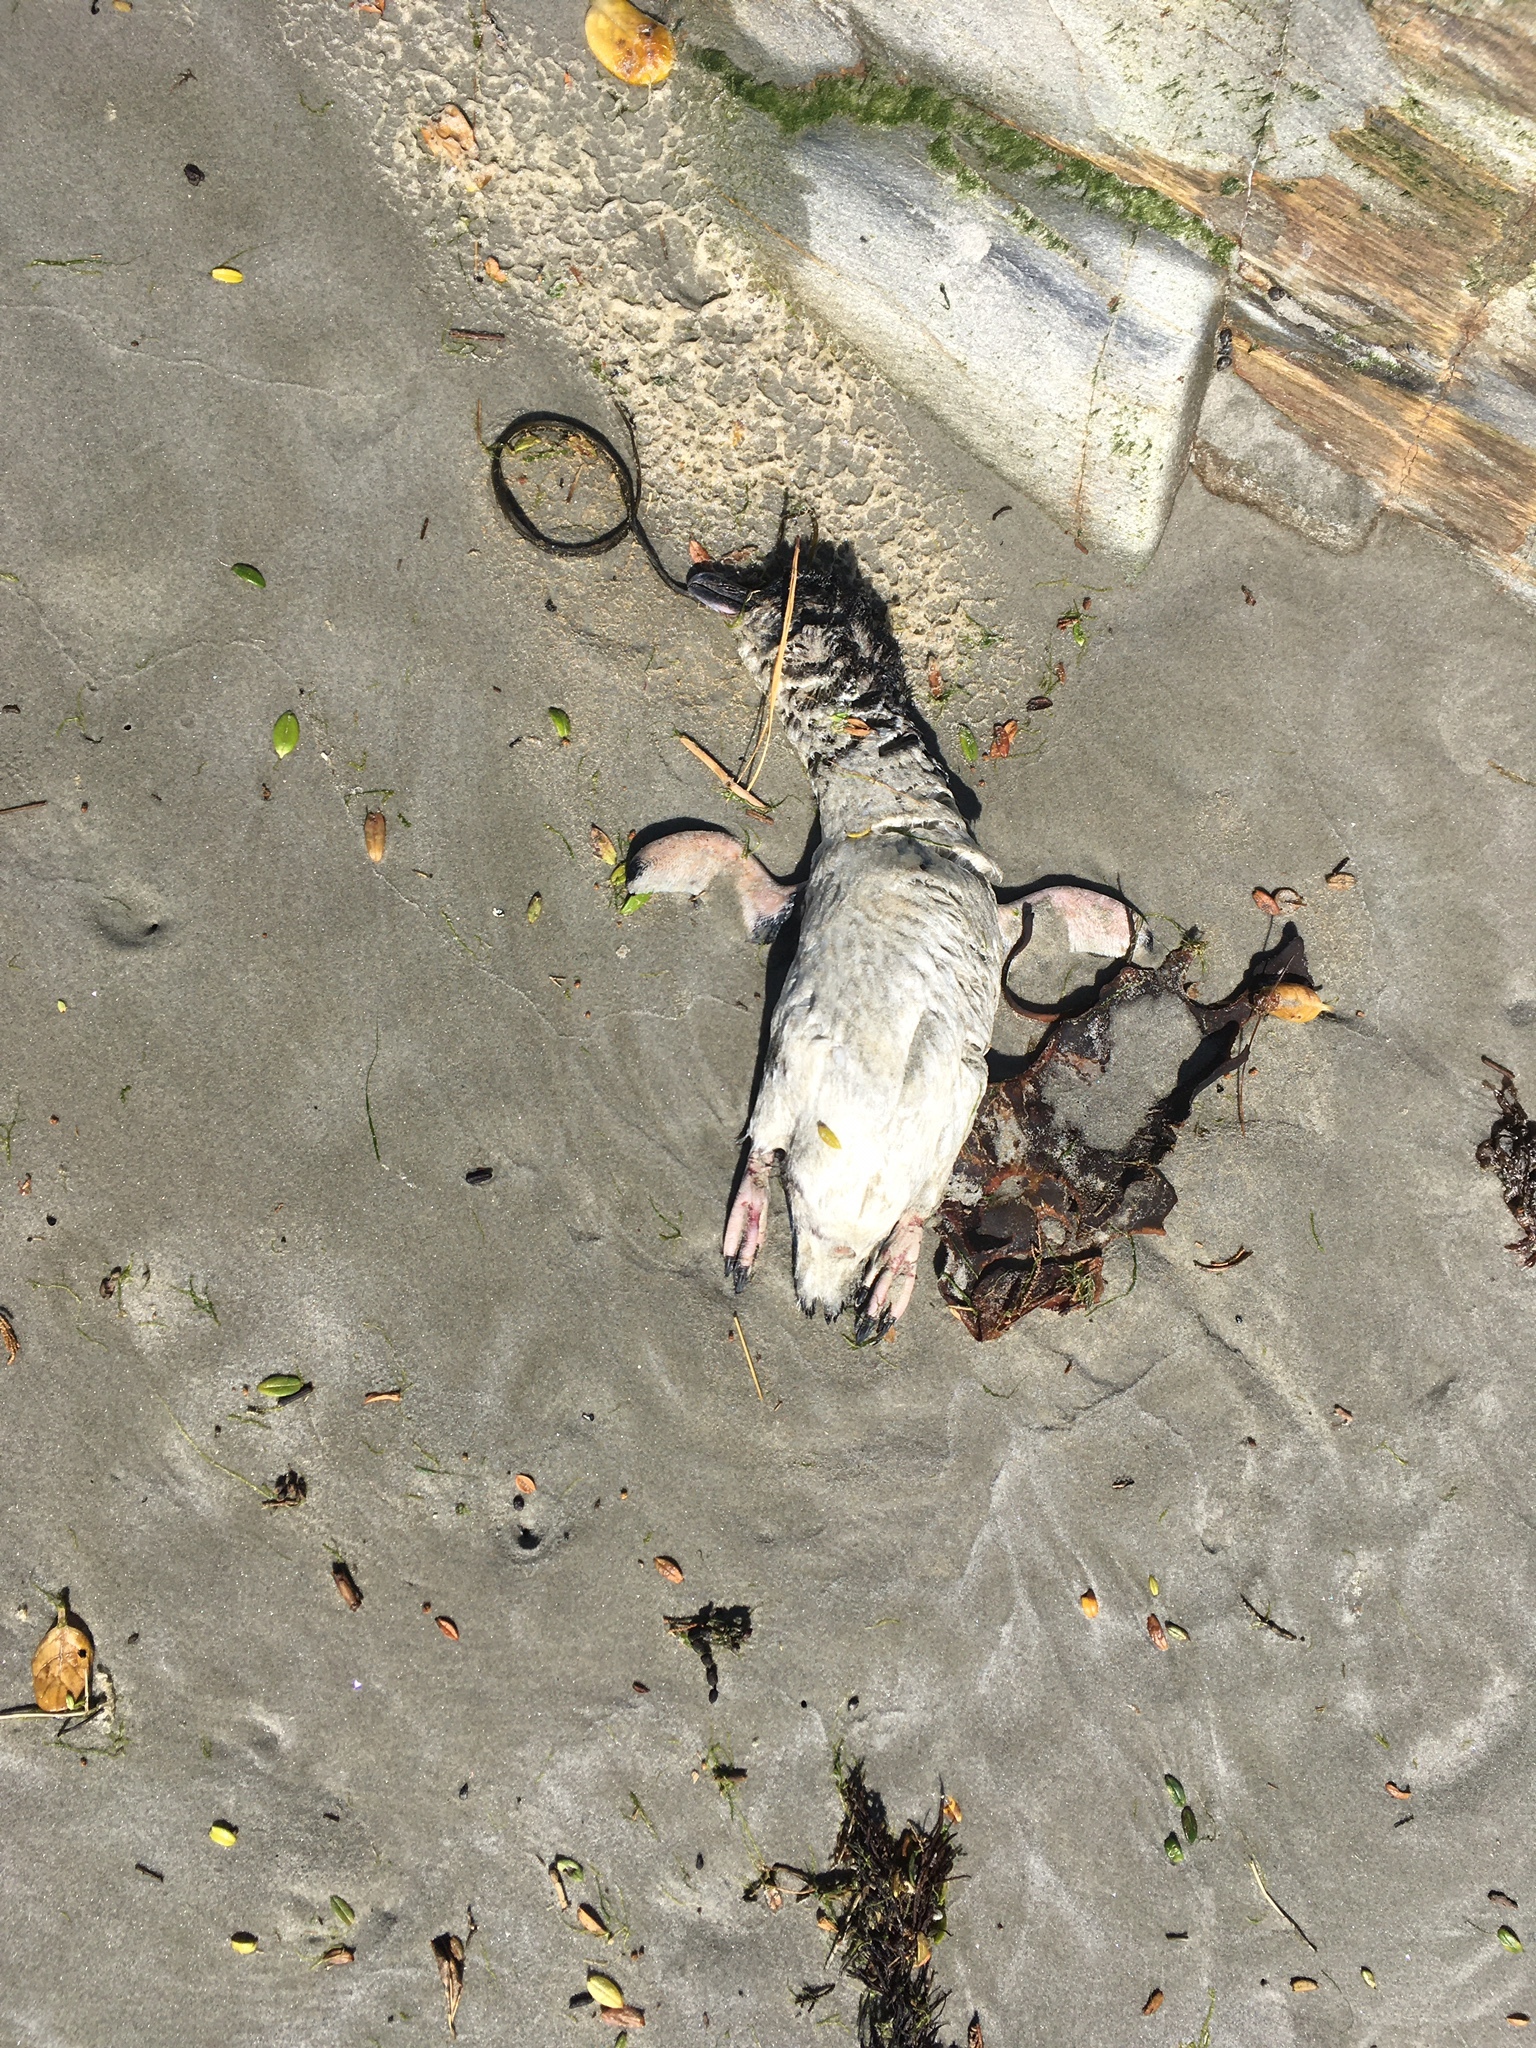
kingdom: Animalia
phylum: Chordata
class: Aves
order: Sphenisciformes
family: Spheniscidae
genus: Eudyptula
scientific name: Eudyptula minor
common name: Little penguin
